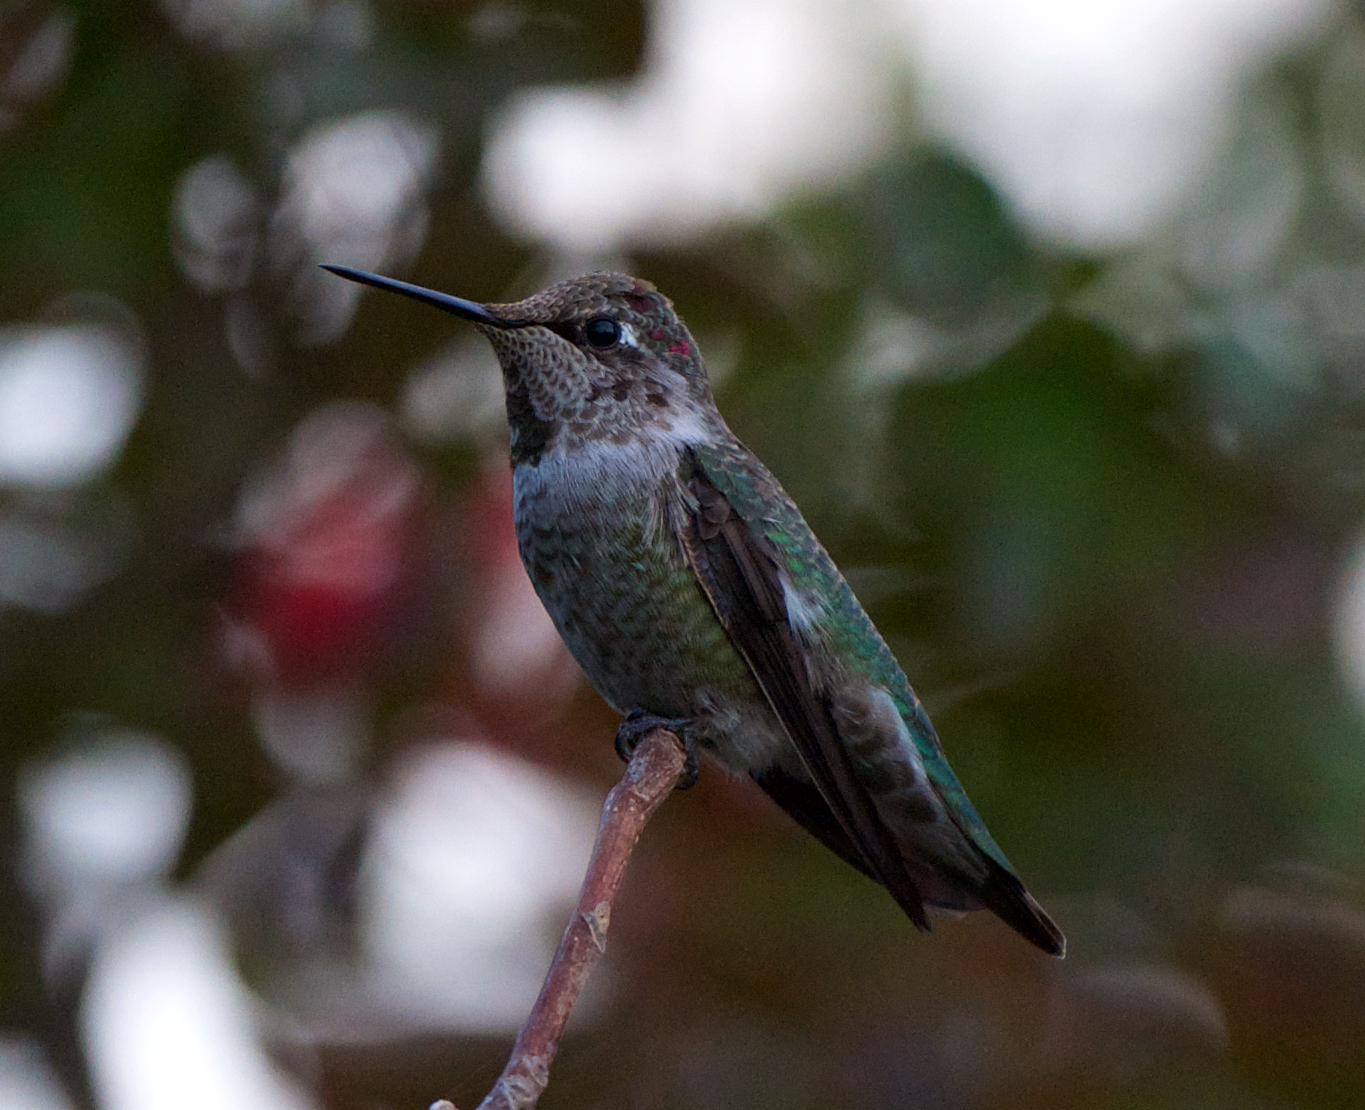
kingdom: Animalia
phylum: Chordata
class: Aves
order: Apodiformes
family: Trochilidae
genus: Calypte
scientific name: Calypte anna
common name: Anna's hummingbird
